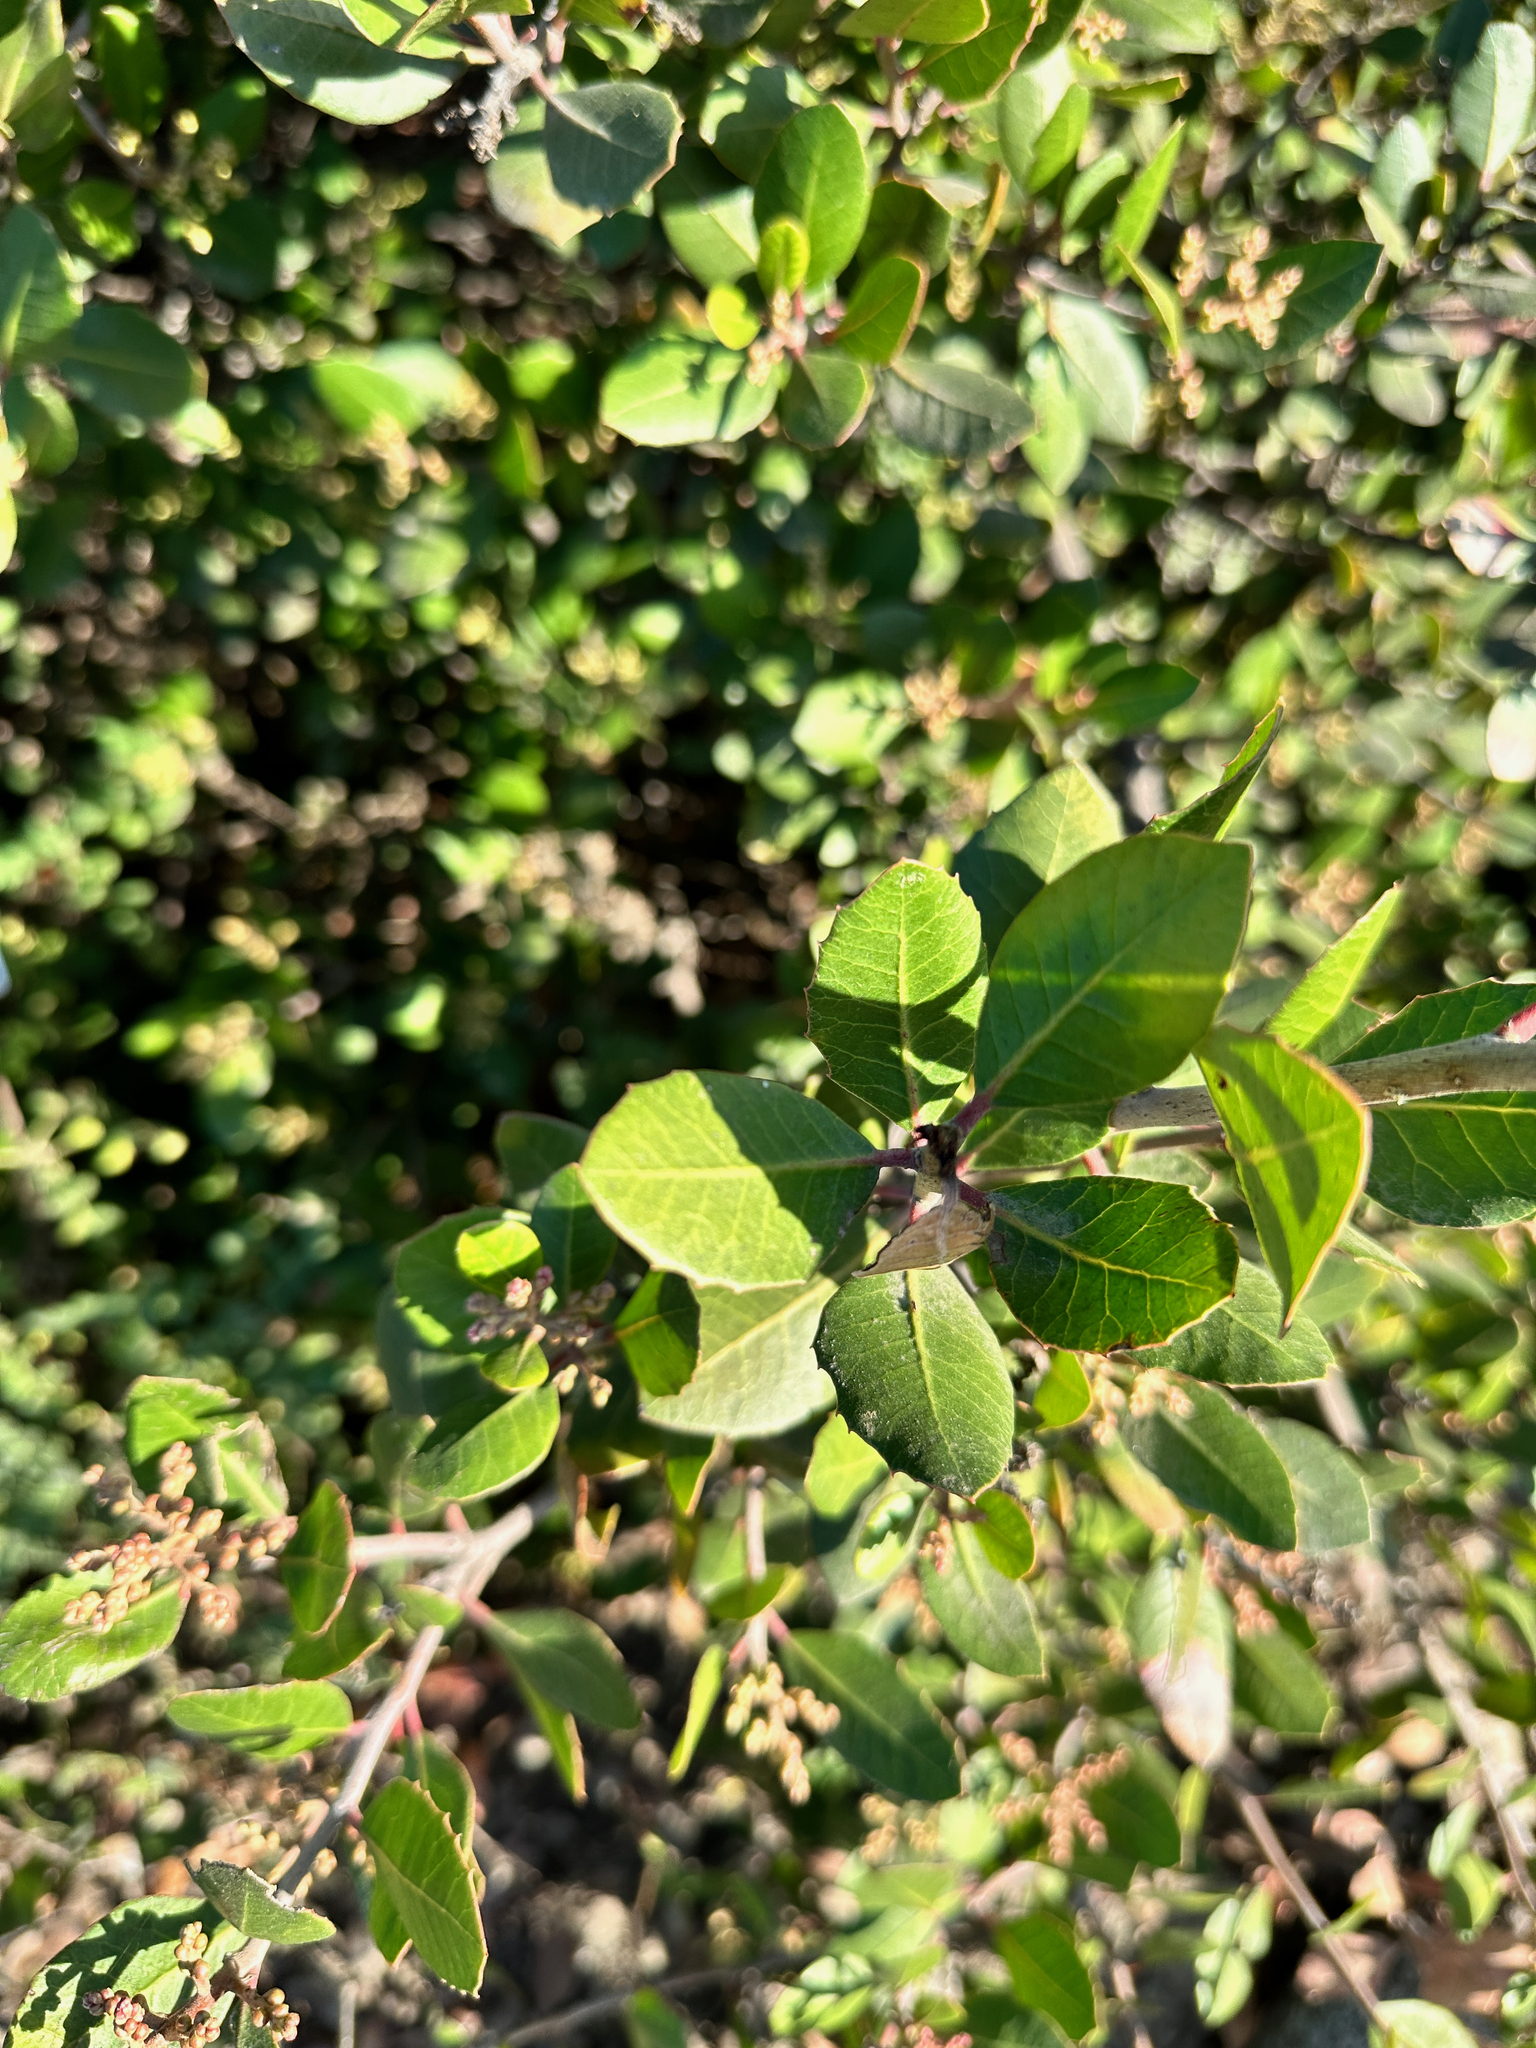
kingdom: Plantae
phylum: Tracheophyta
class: Magnoliopsida
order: Sapindales
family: Anacardiaceae
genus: Rhus
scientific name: Rhus integrifolia
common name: Lemonade sumac
